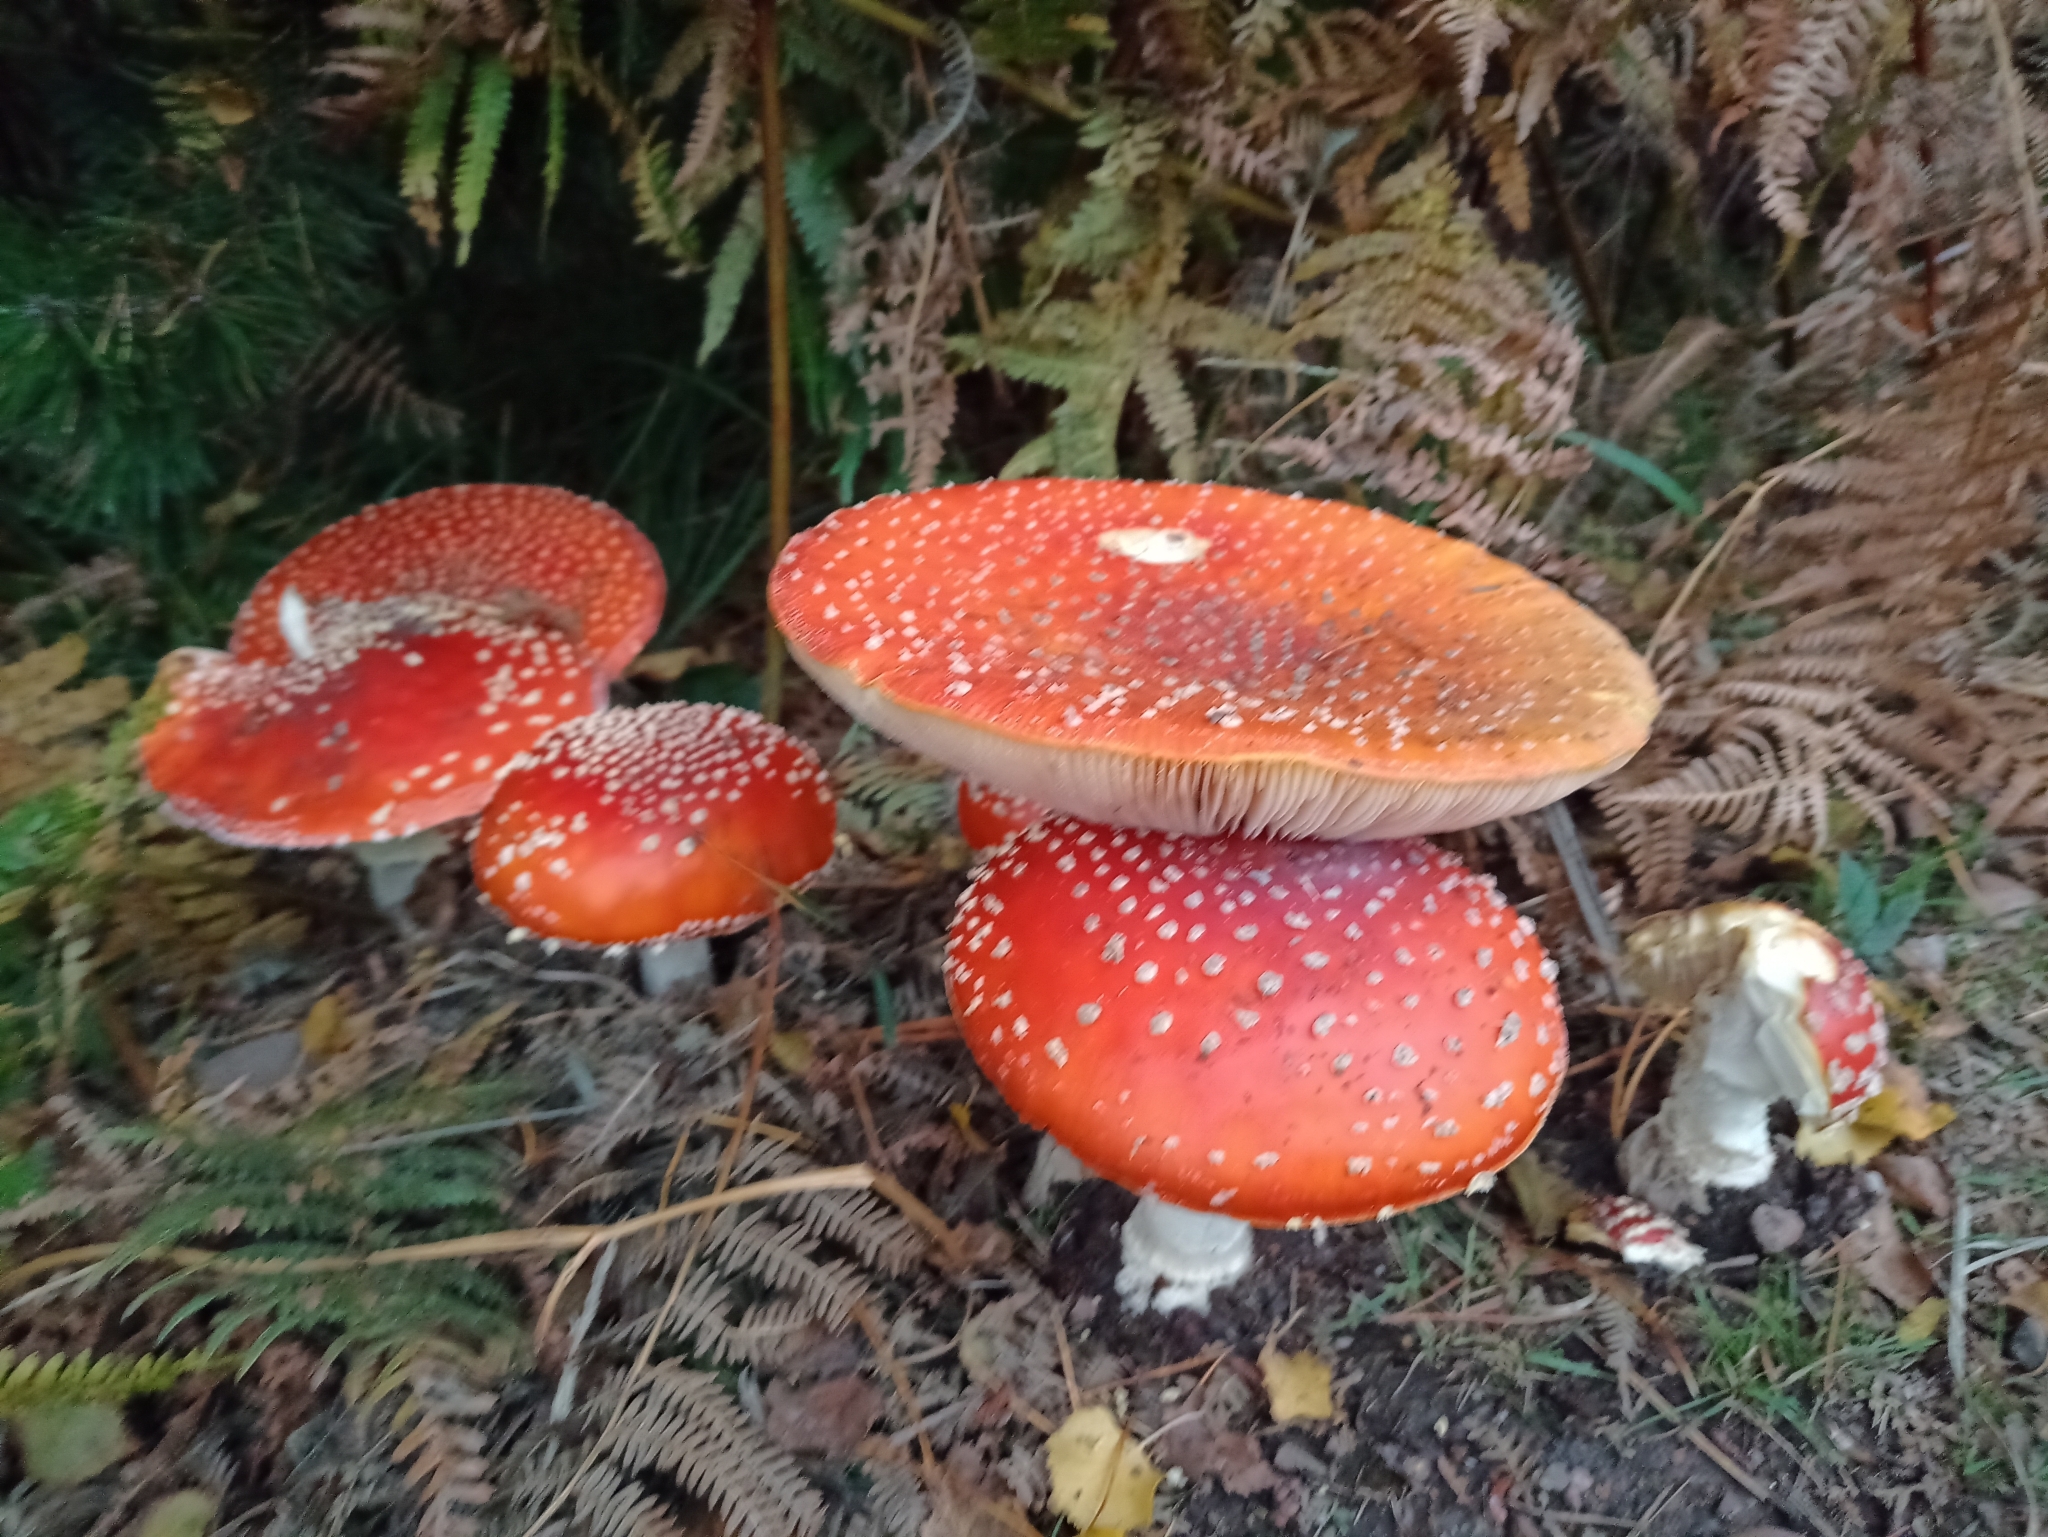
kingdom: Fungi
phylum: Basidiomycota
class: Agaricomycetes
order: Agaricales
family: Amanitaceae
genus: Amanita
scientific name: Amanita muscaria
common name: Fly agaric
